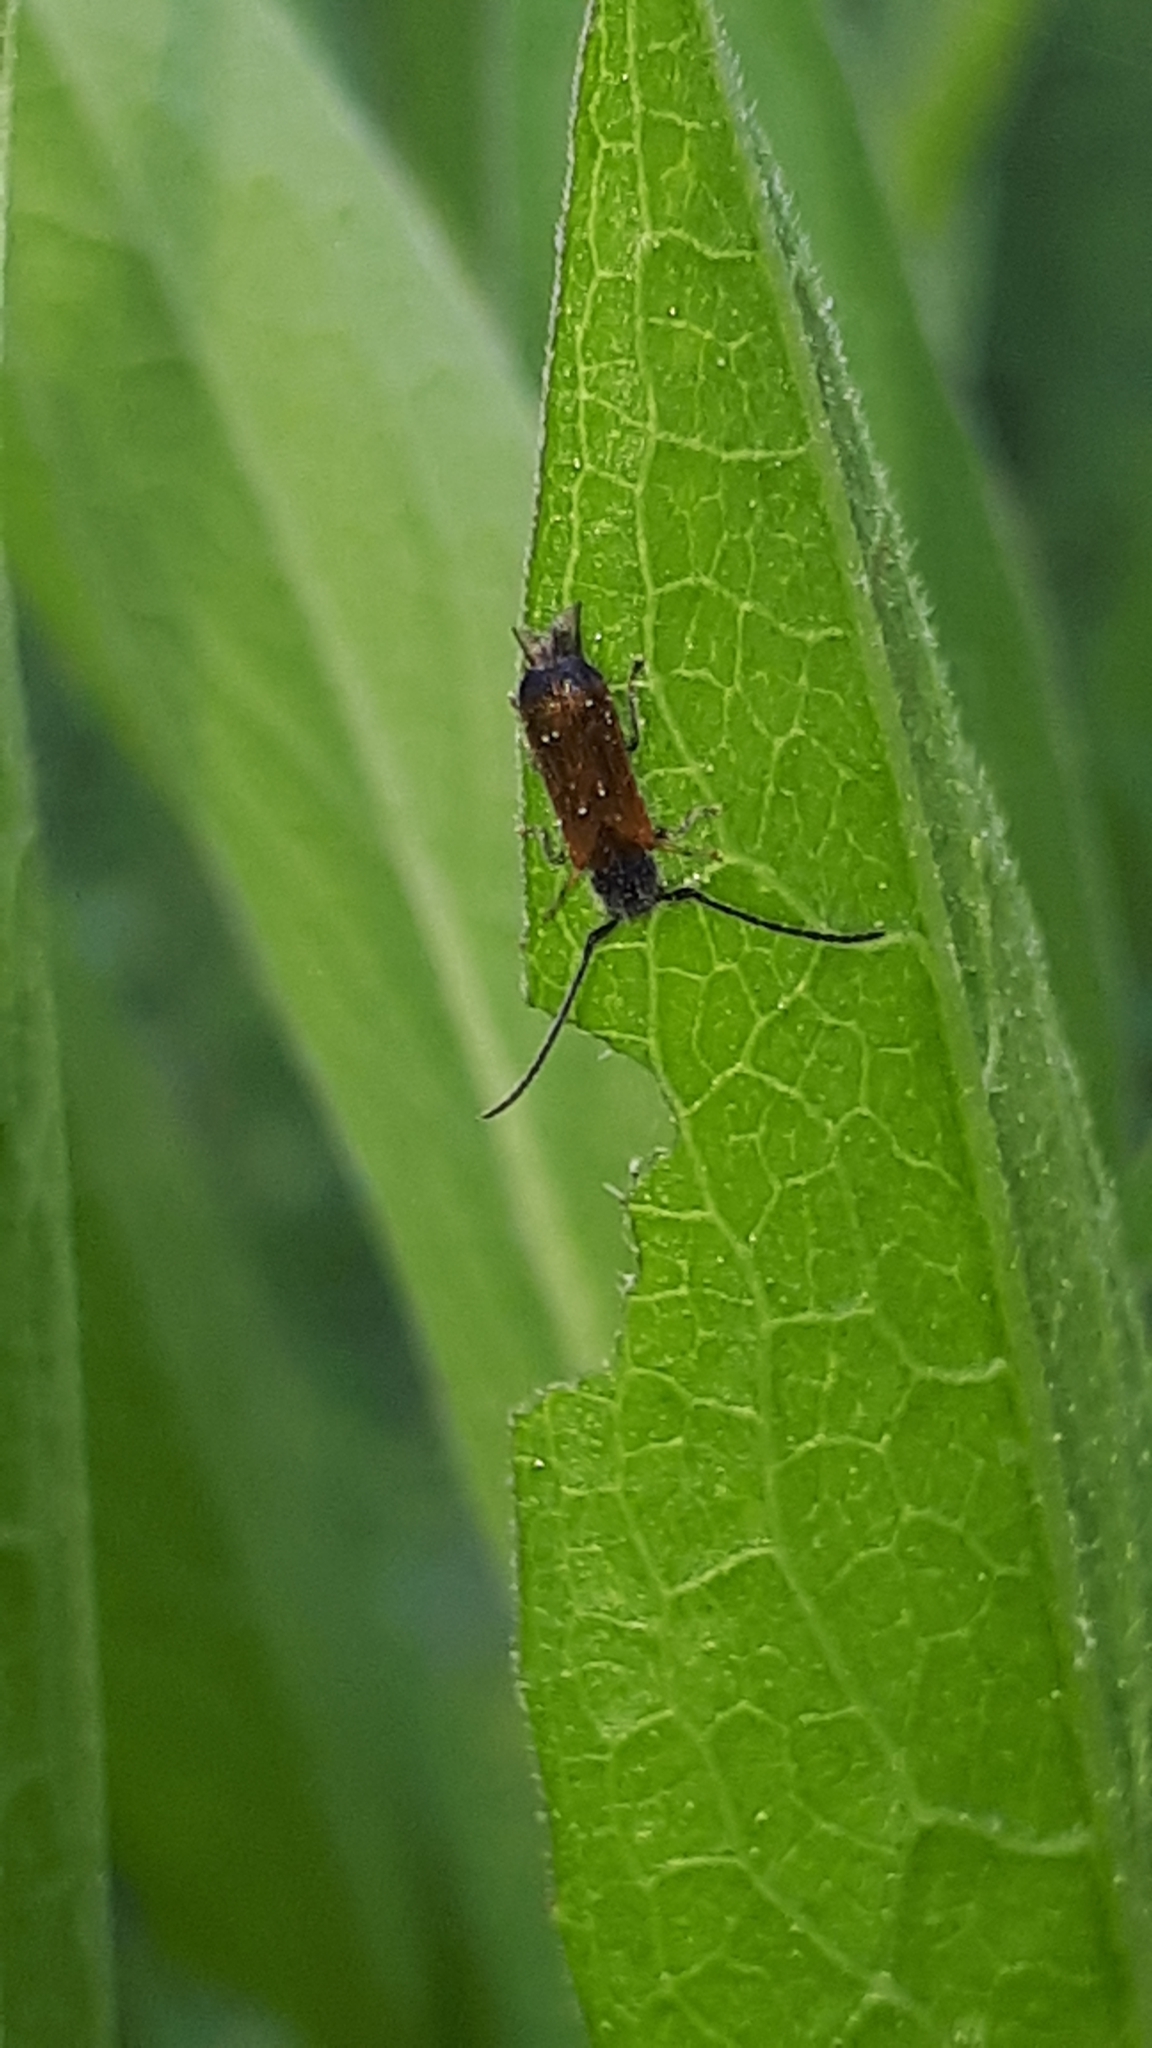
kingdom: Animalia
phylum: Arthropoda
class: Insecta
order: Coleoptera
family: Cerambycidae
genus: Tetrops
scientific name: Tetrops praeustus
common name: Plum beetle
